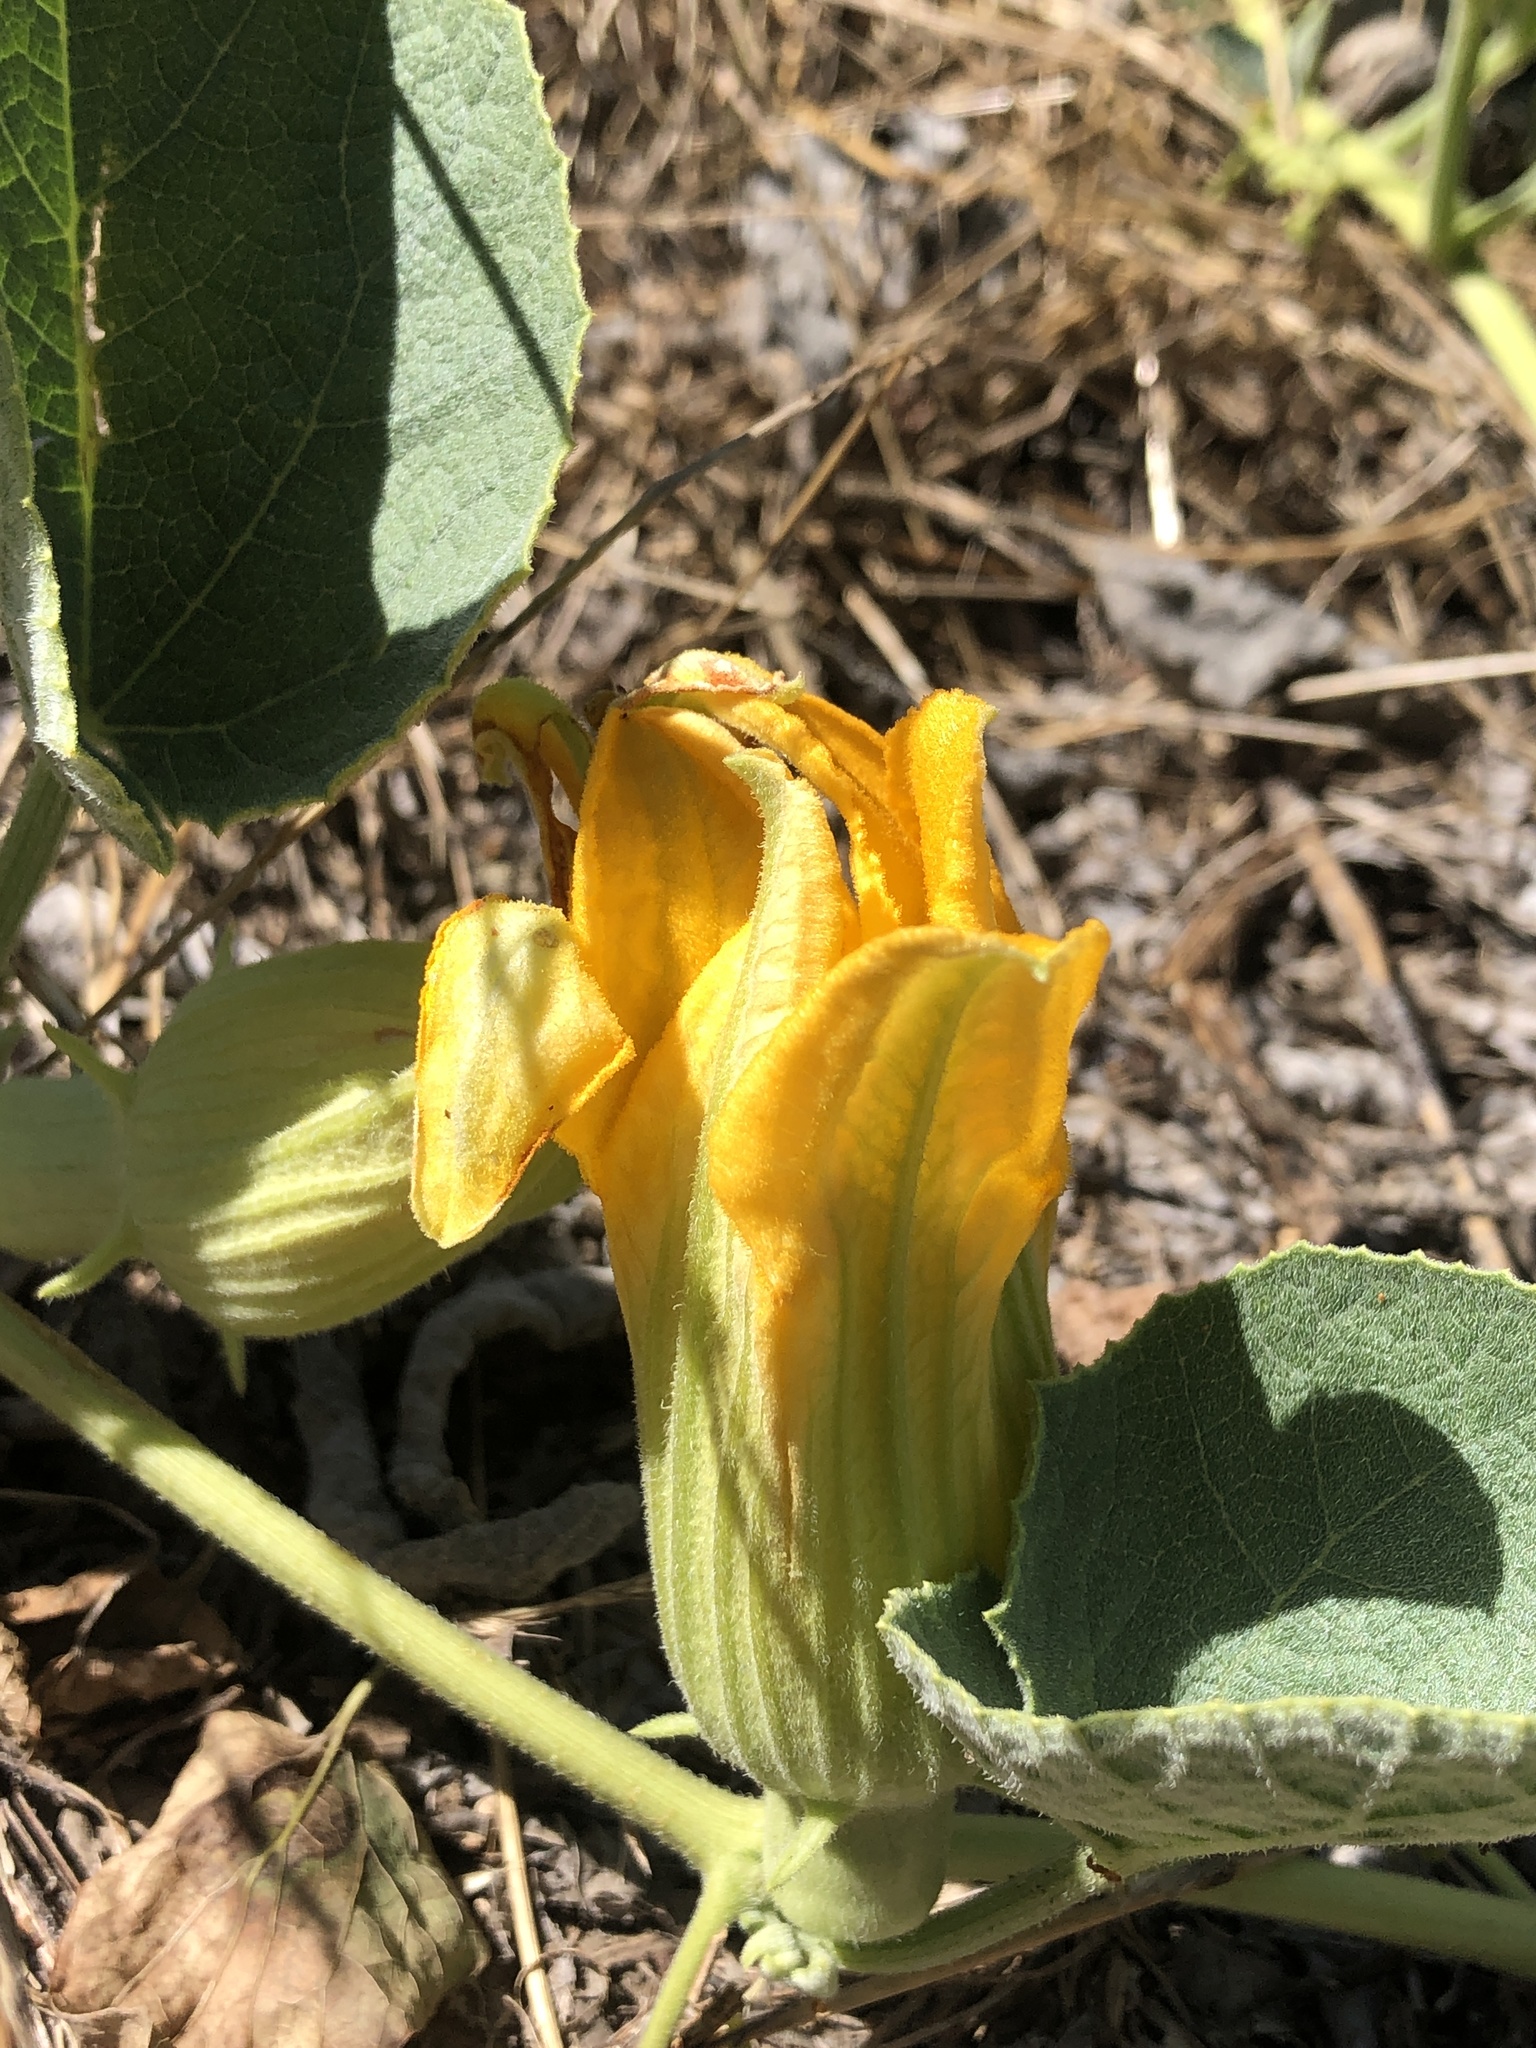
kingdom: Plantae
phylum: Tracheophyta
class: Magnoliopsida
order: Cucurbitales
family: Cucurbitaceae
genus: Cucurbita
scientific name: Cucurbita foetidissima
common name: Buffalo gourd
